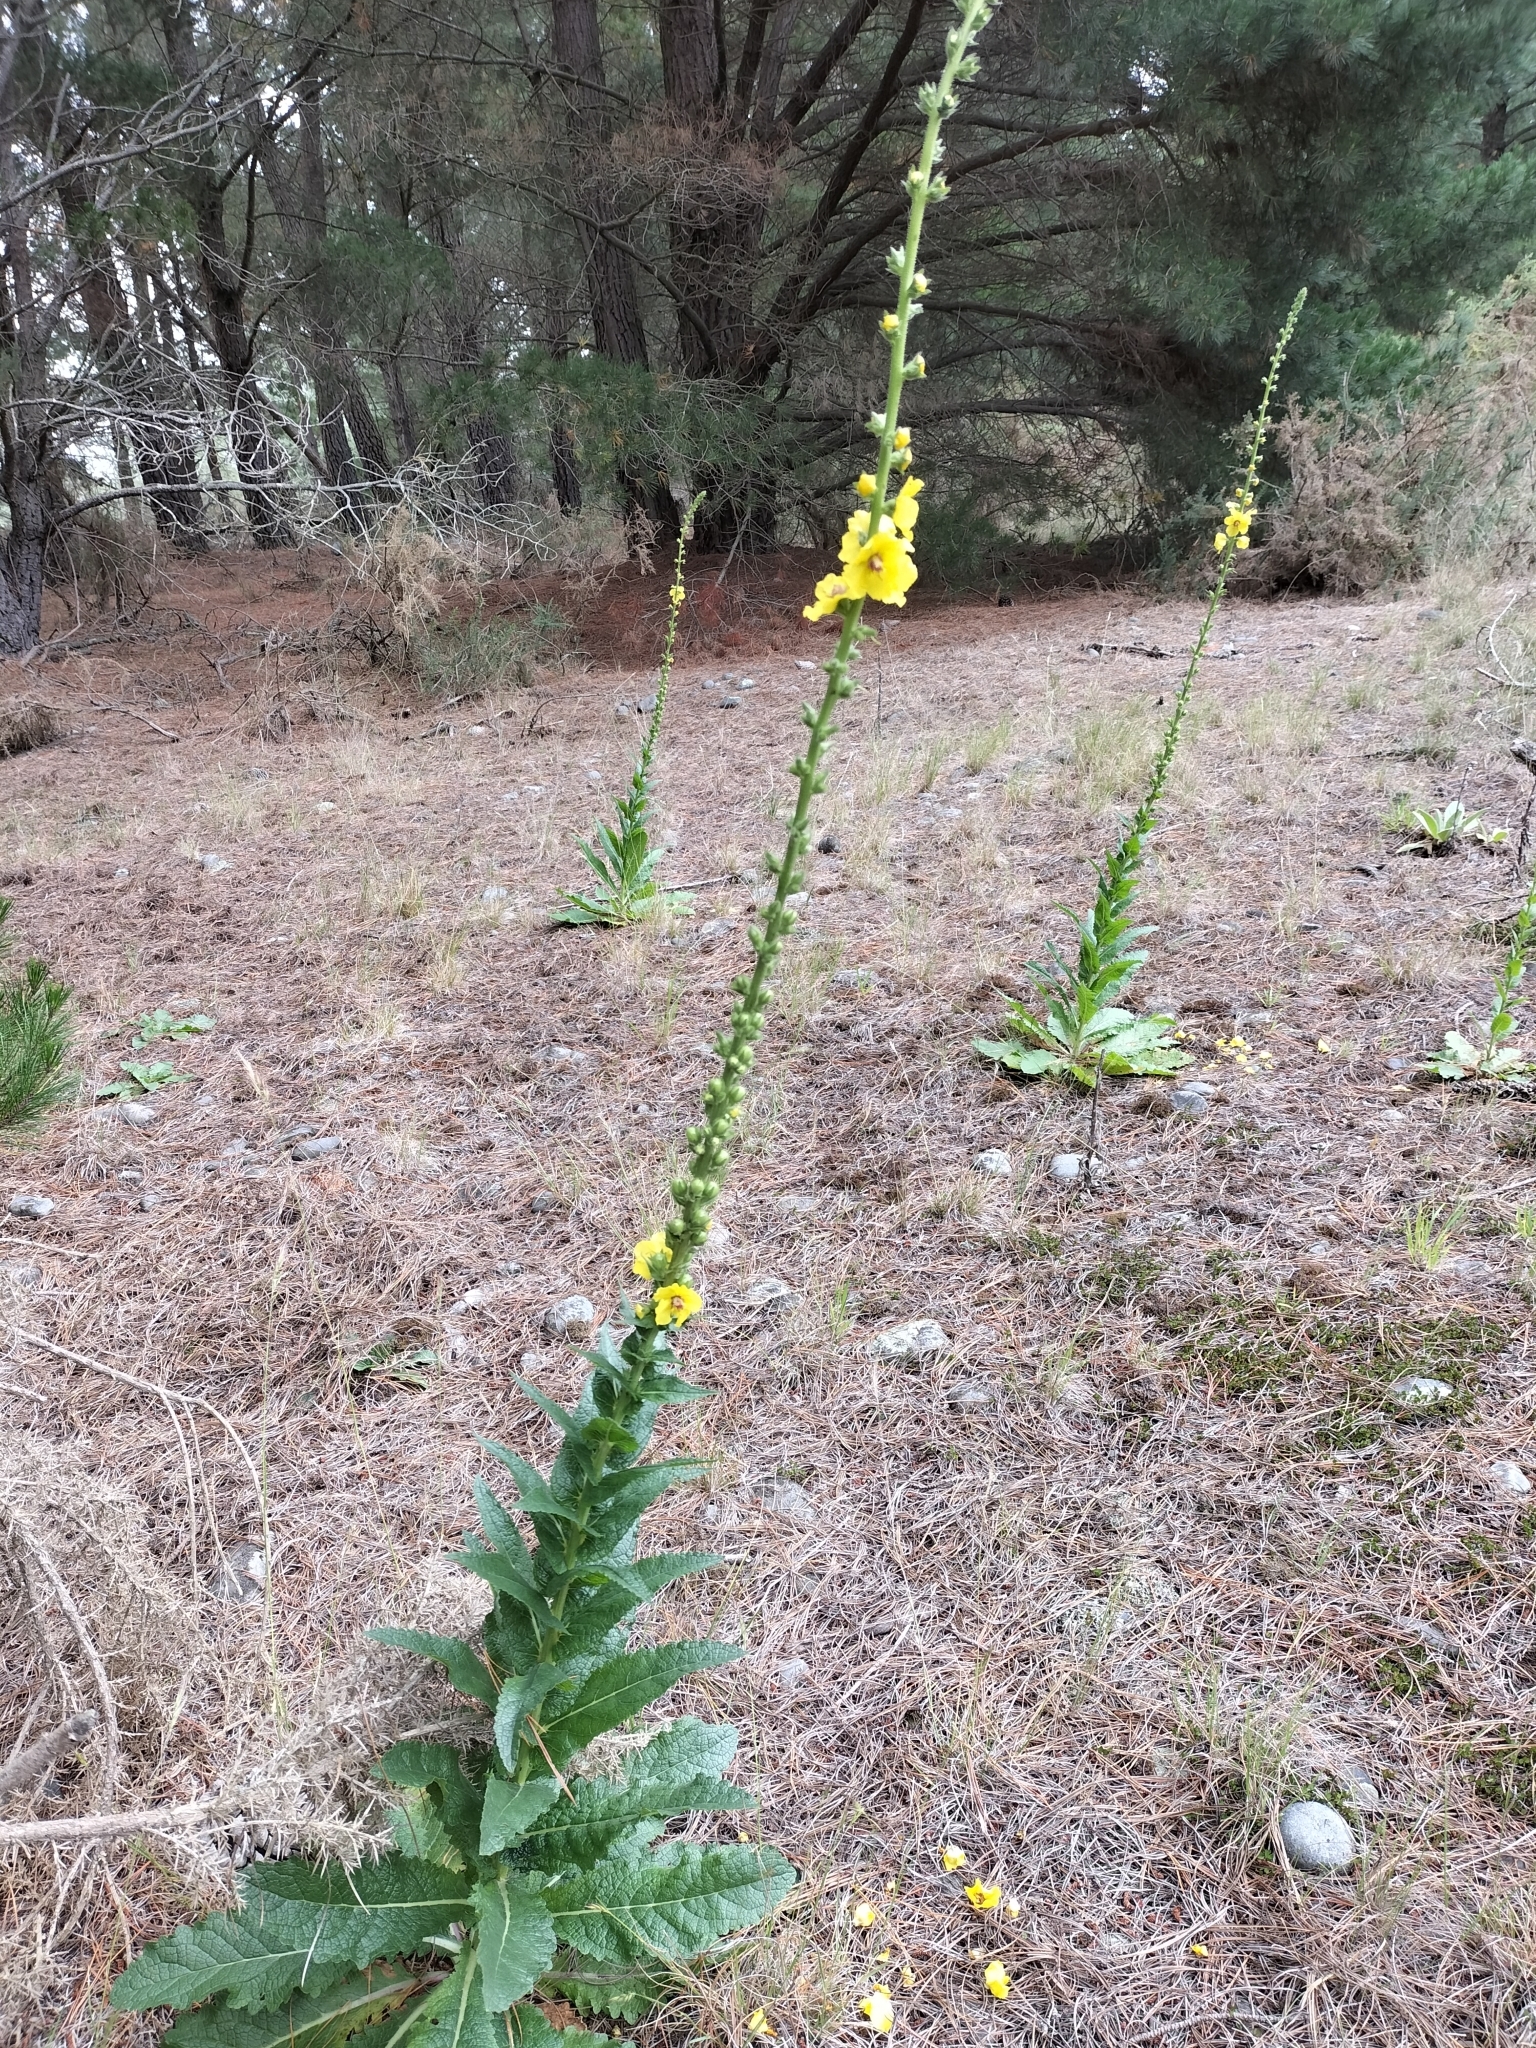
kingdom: Plantae
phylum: Tracheophyta
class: Magnoliopsida
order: Lamiales
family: Scrophulariaceae
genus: Verbascum
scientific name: Verbascum virgatum
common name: Twiggy mullein
